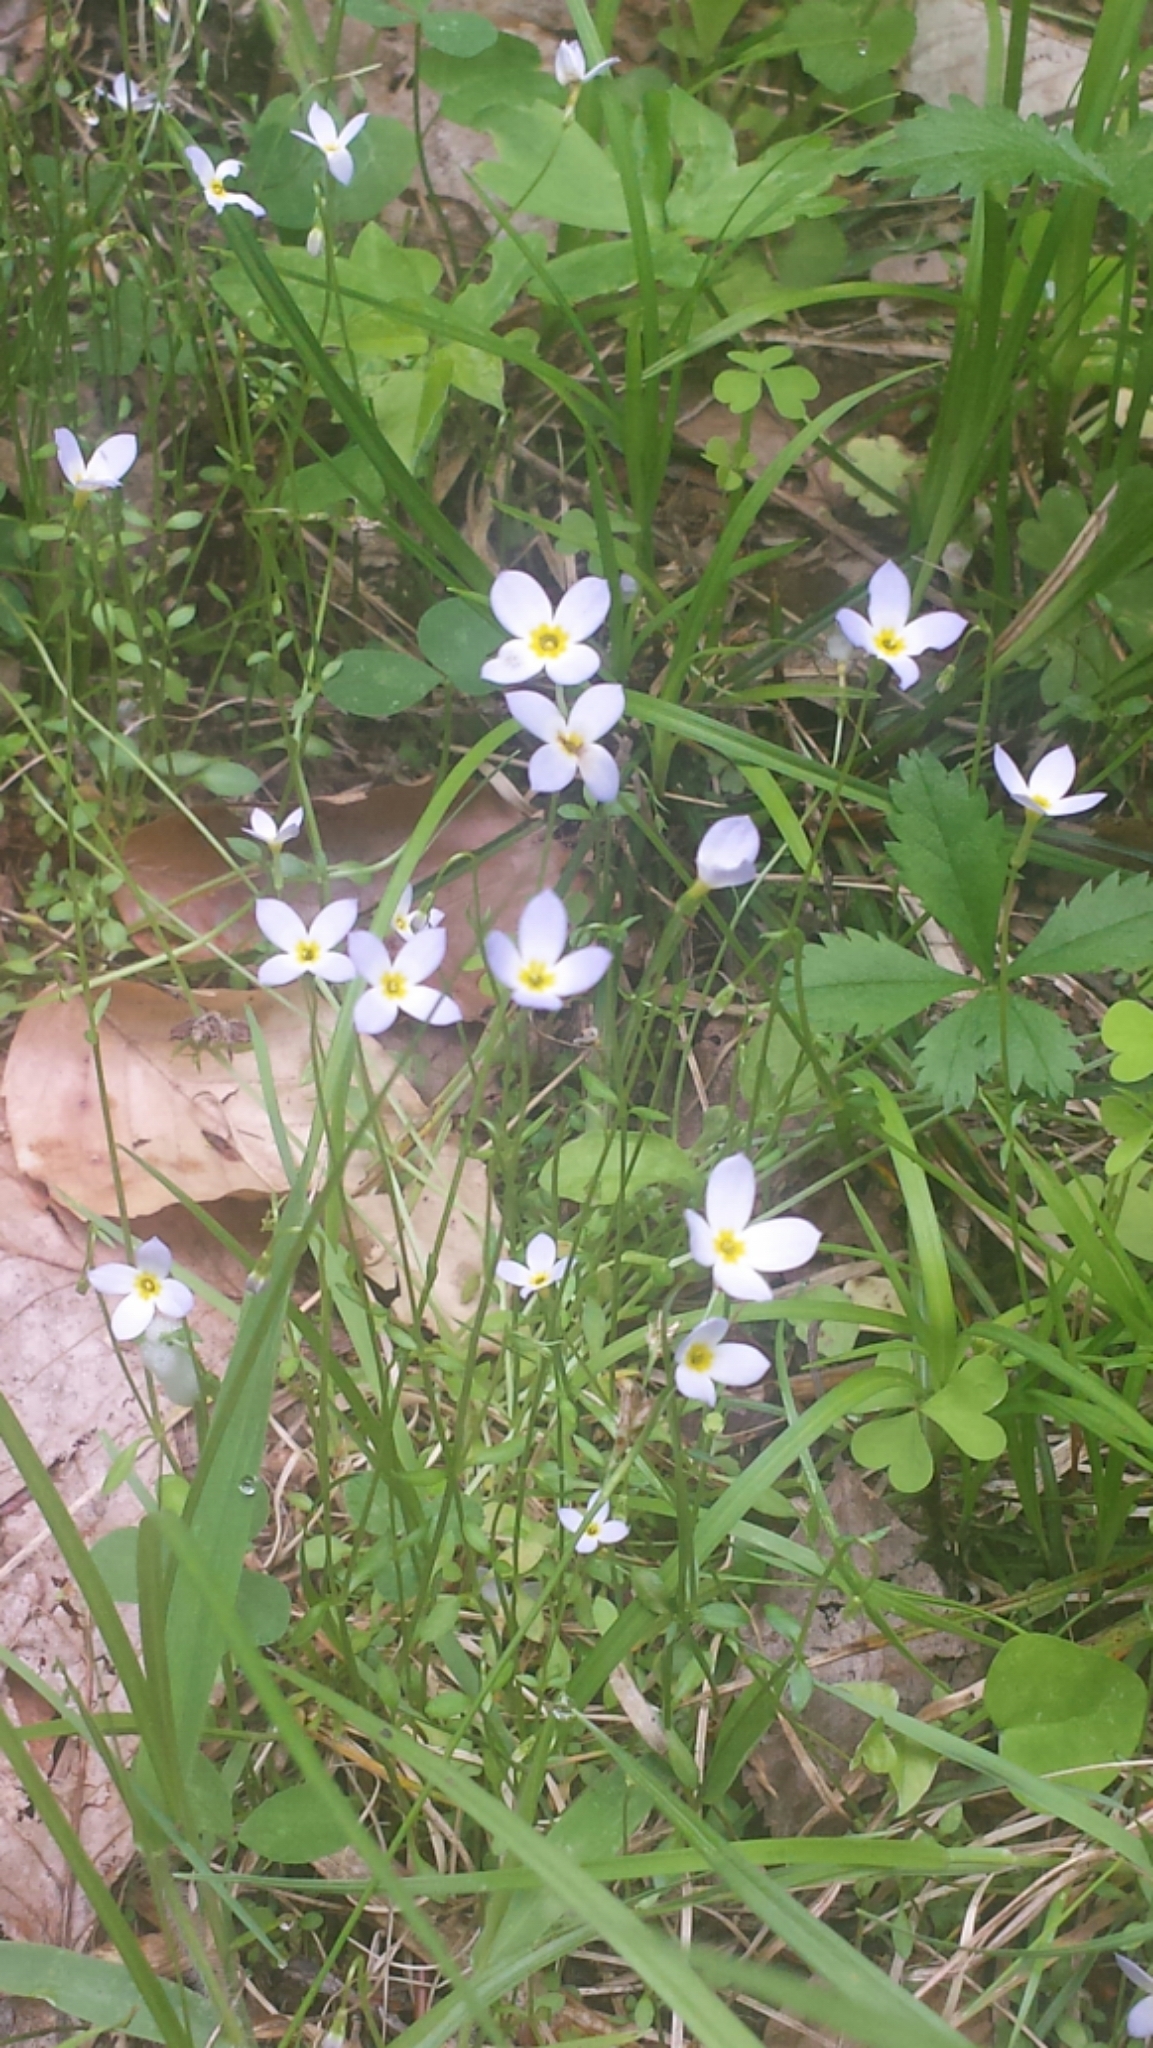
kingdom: Plantae
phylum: Tracheophyta
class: Magnoliopsida
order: Gentianales
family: Rubiaceae
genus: Houstonia
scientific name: Houstonia caerulea
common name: Bluets
